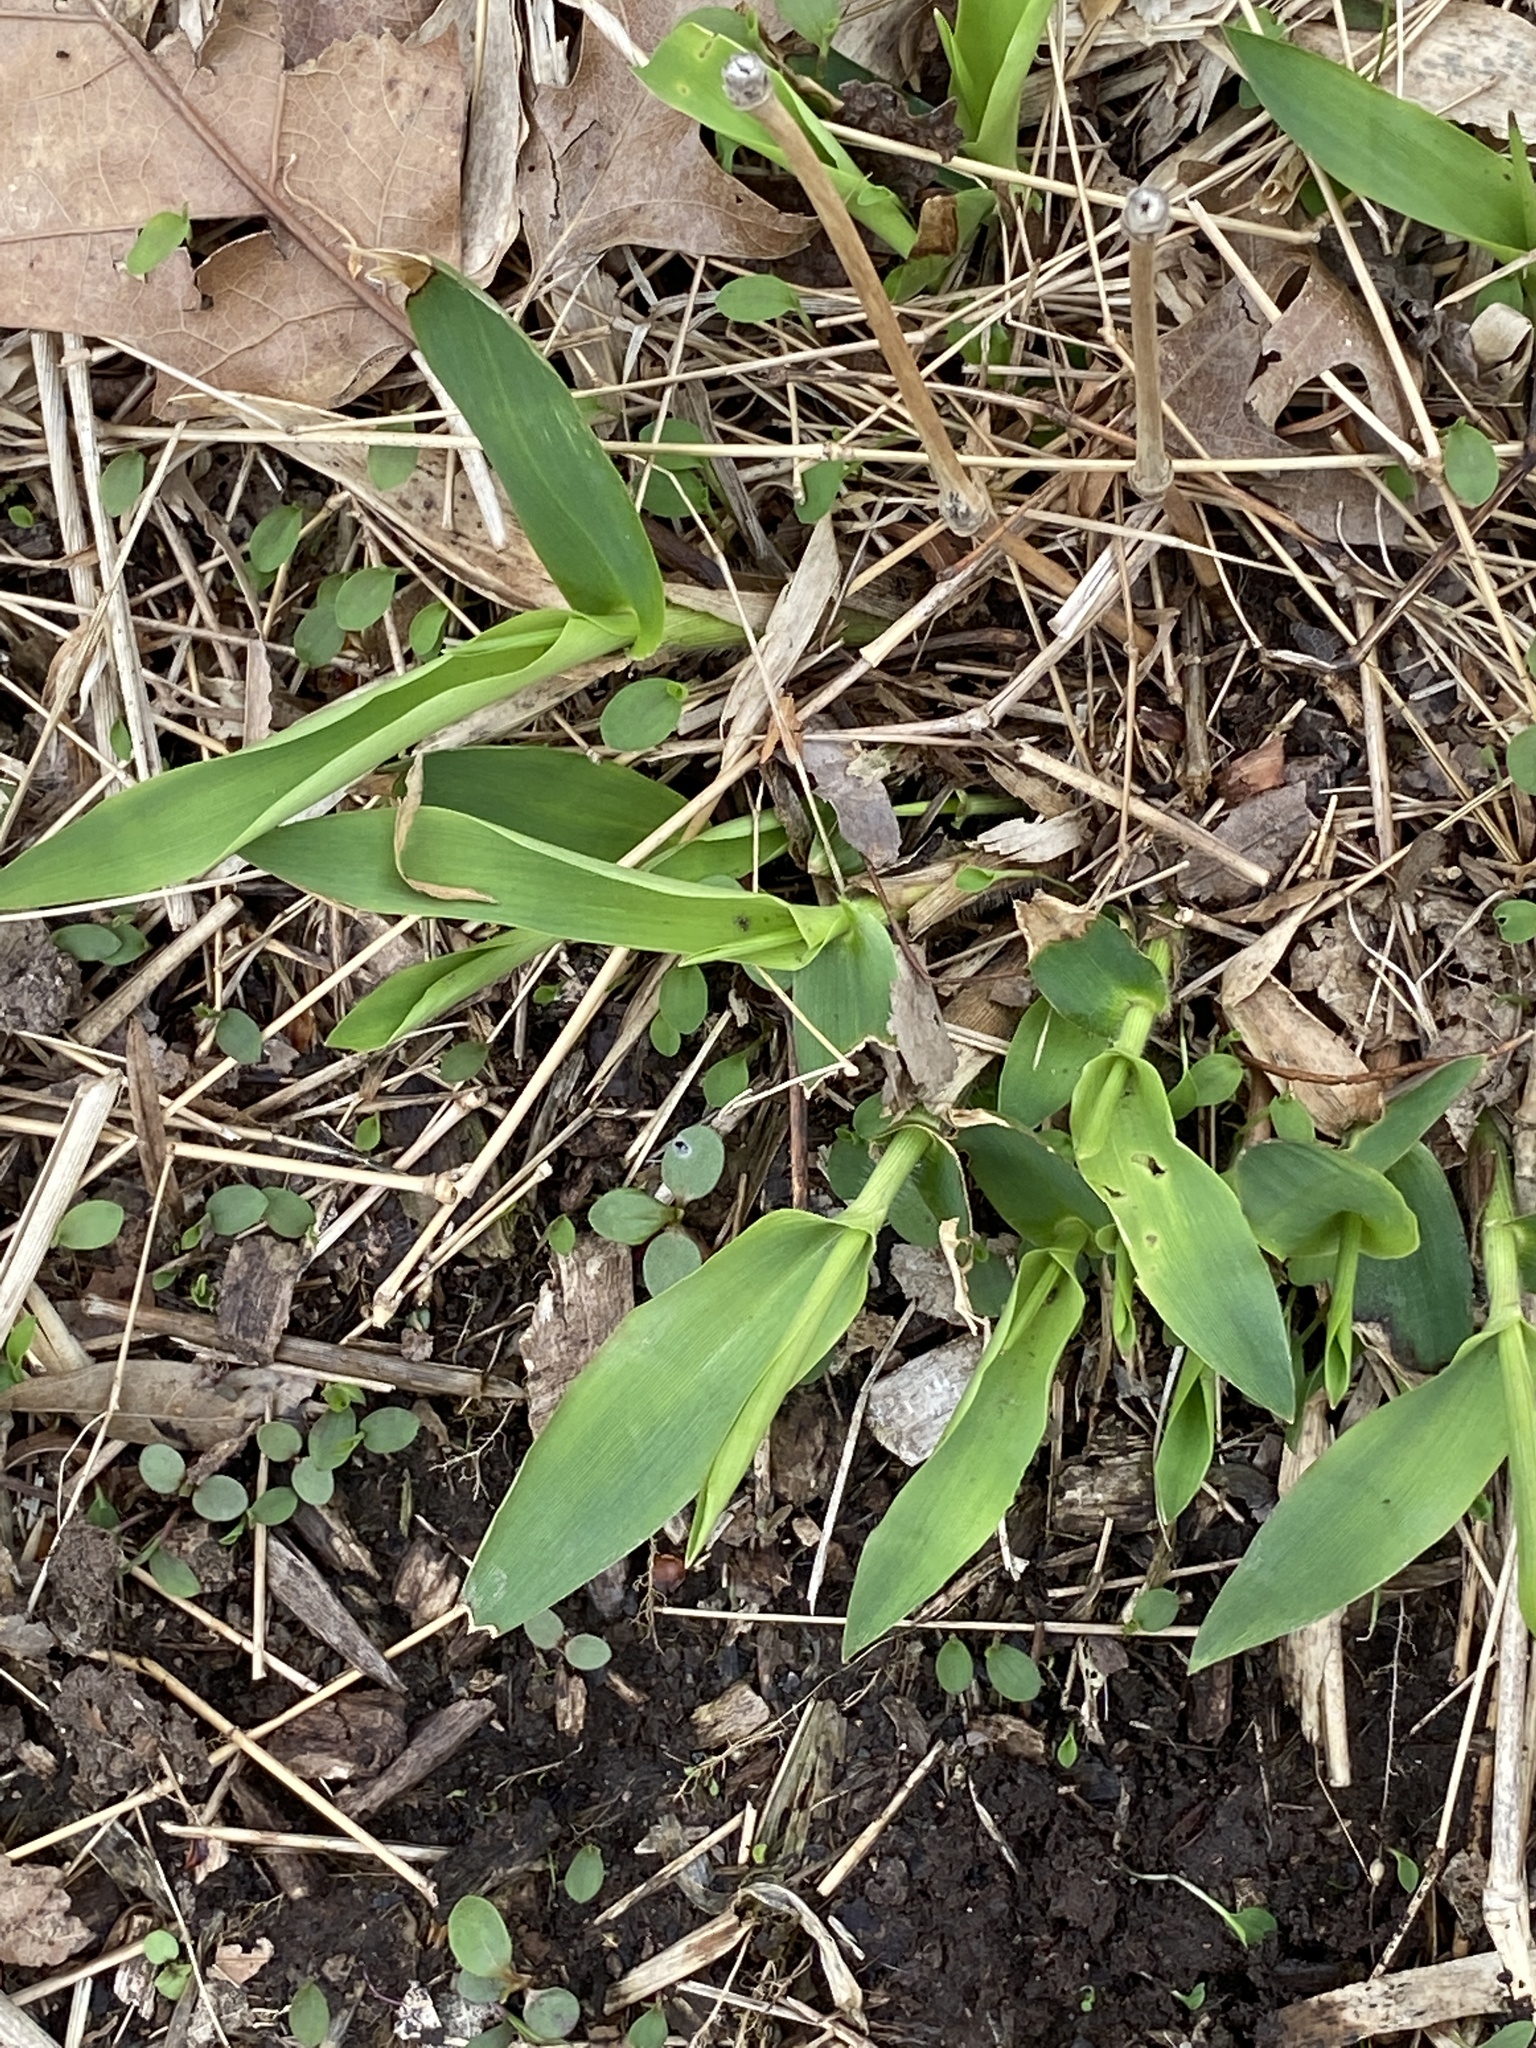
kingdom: Plantae
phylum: Tracheophyta
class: Liliopsida
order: Poales
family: Poaceae
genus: Dichanthelium
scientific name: Dichanthelium clandestinum
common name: Deer-tongue grass
